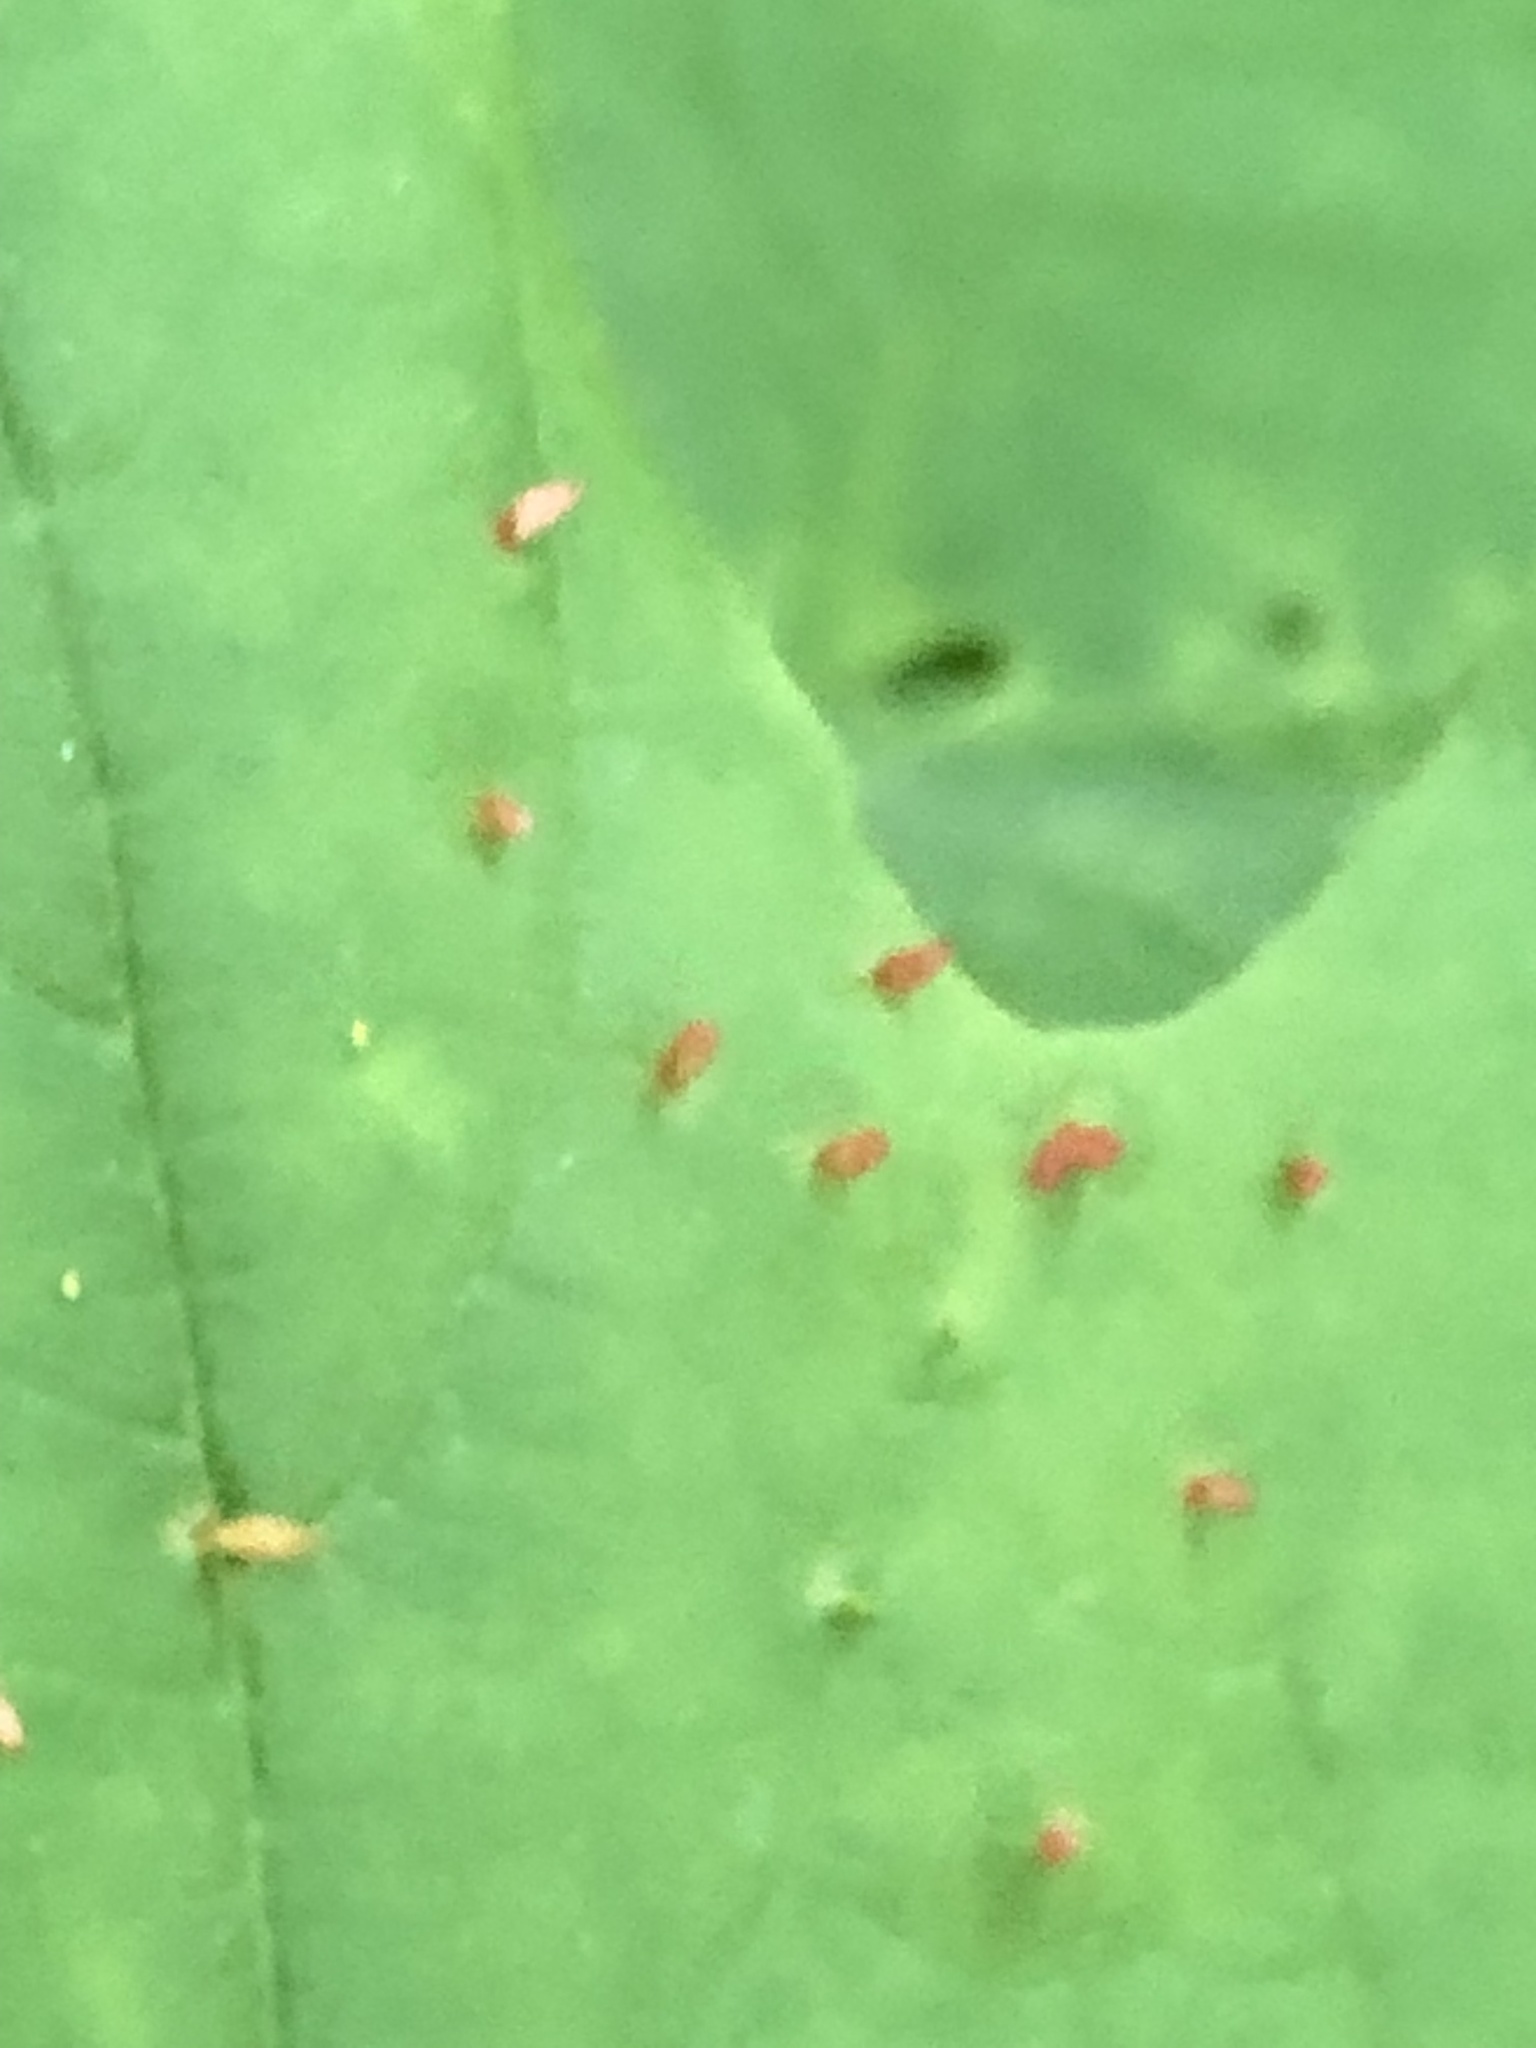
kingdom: Animalia
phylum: Arthropoda
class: Arachnida
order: Trombidiformes
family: Eriophyidae
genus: Vasates
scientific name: Vasates aceriscrumena
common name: Maple spindle gall mite
